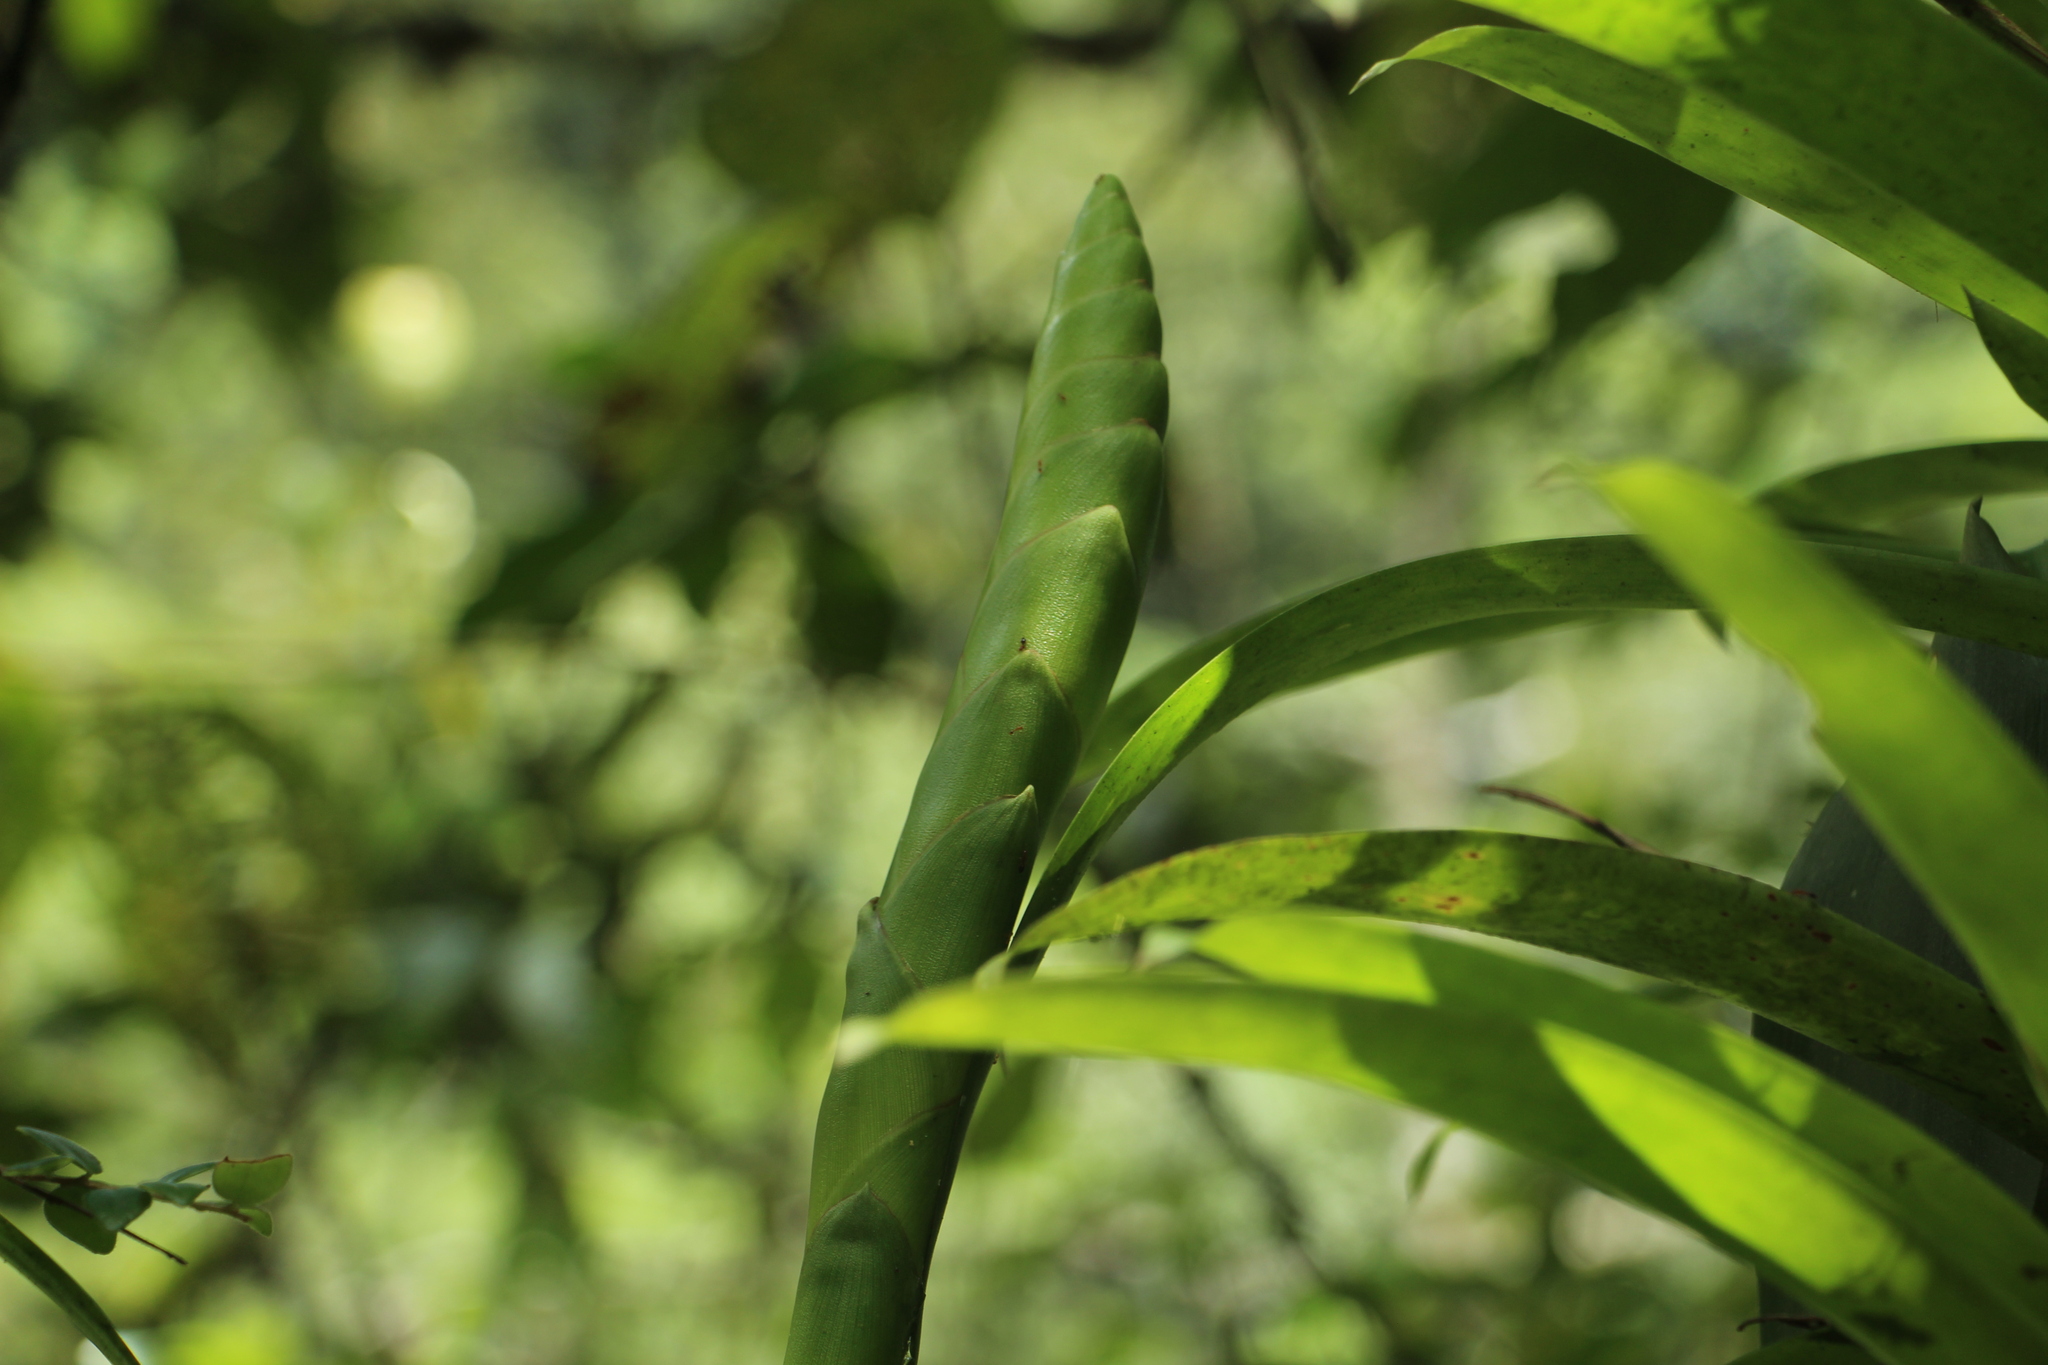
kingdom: Plantae
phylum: Tracheophyta
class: Liliopsida
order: Poales
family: Bromeliaceae
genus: Werauhia
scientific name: Werauhia gladioliflora
